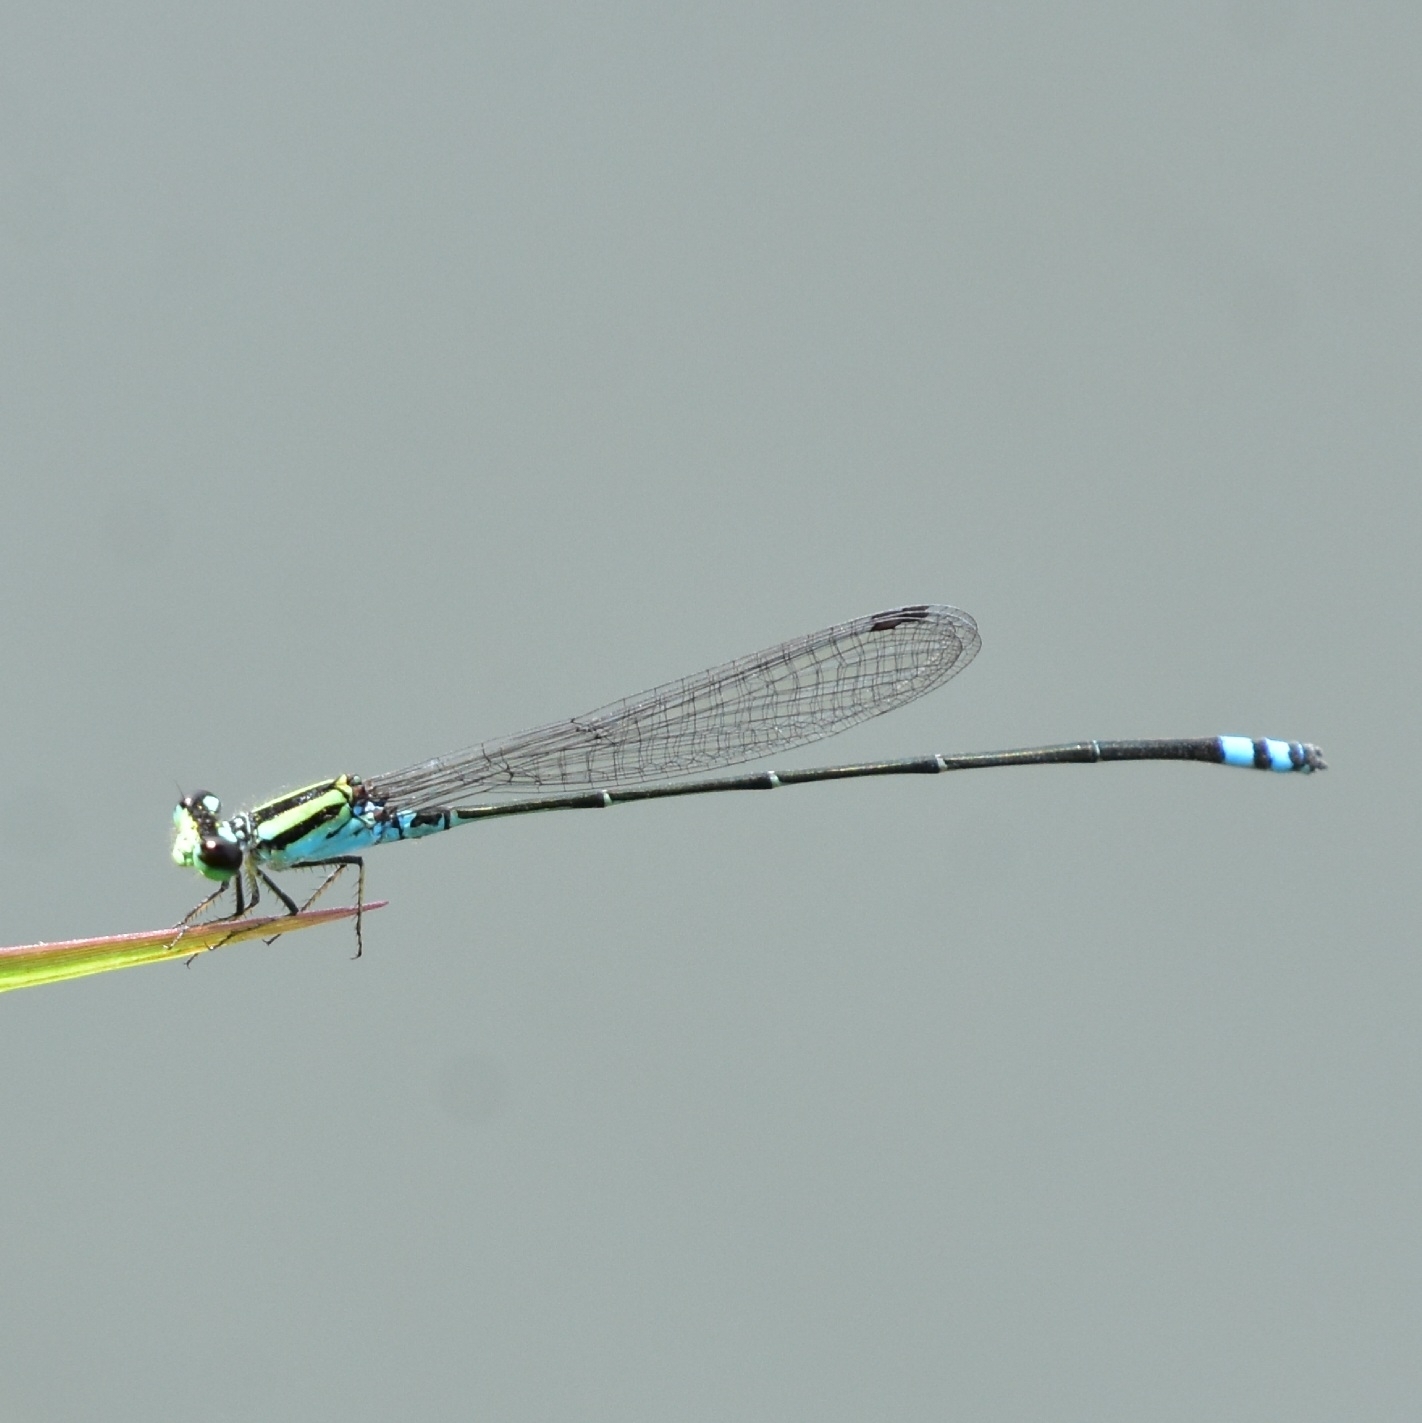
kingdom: Animalia
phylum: Arthropoda
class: Insecta
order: Odonata
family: Coenagrionidae
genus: Pseudagrion
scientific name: Pseudagrion indicum
